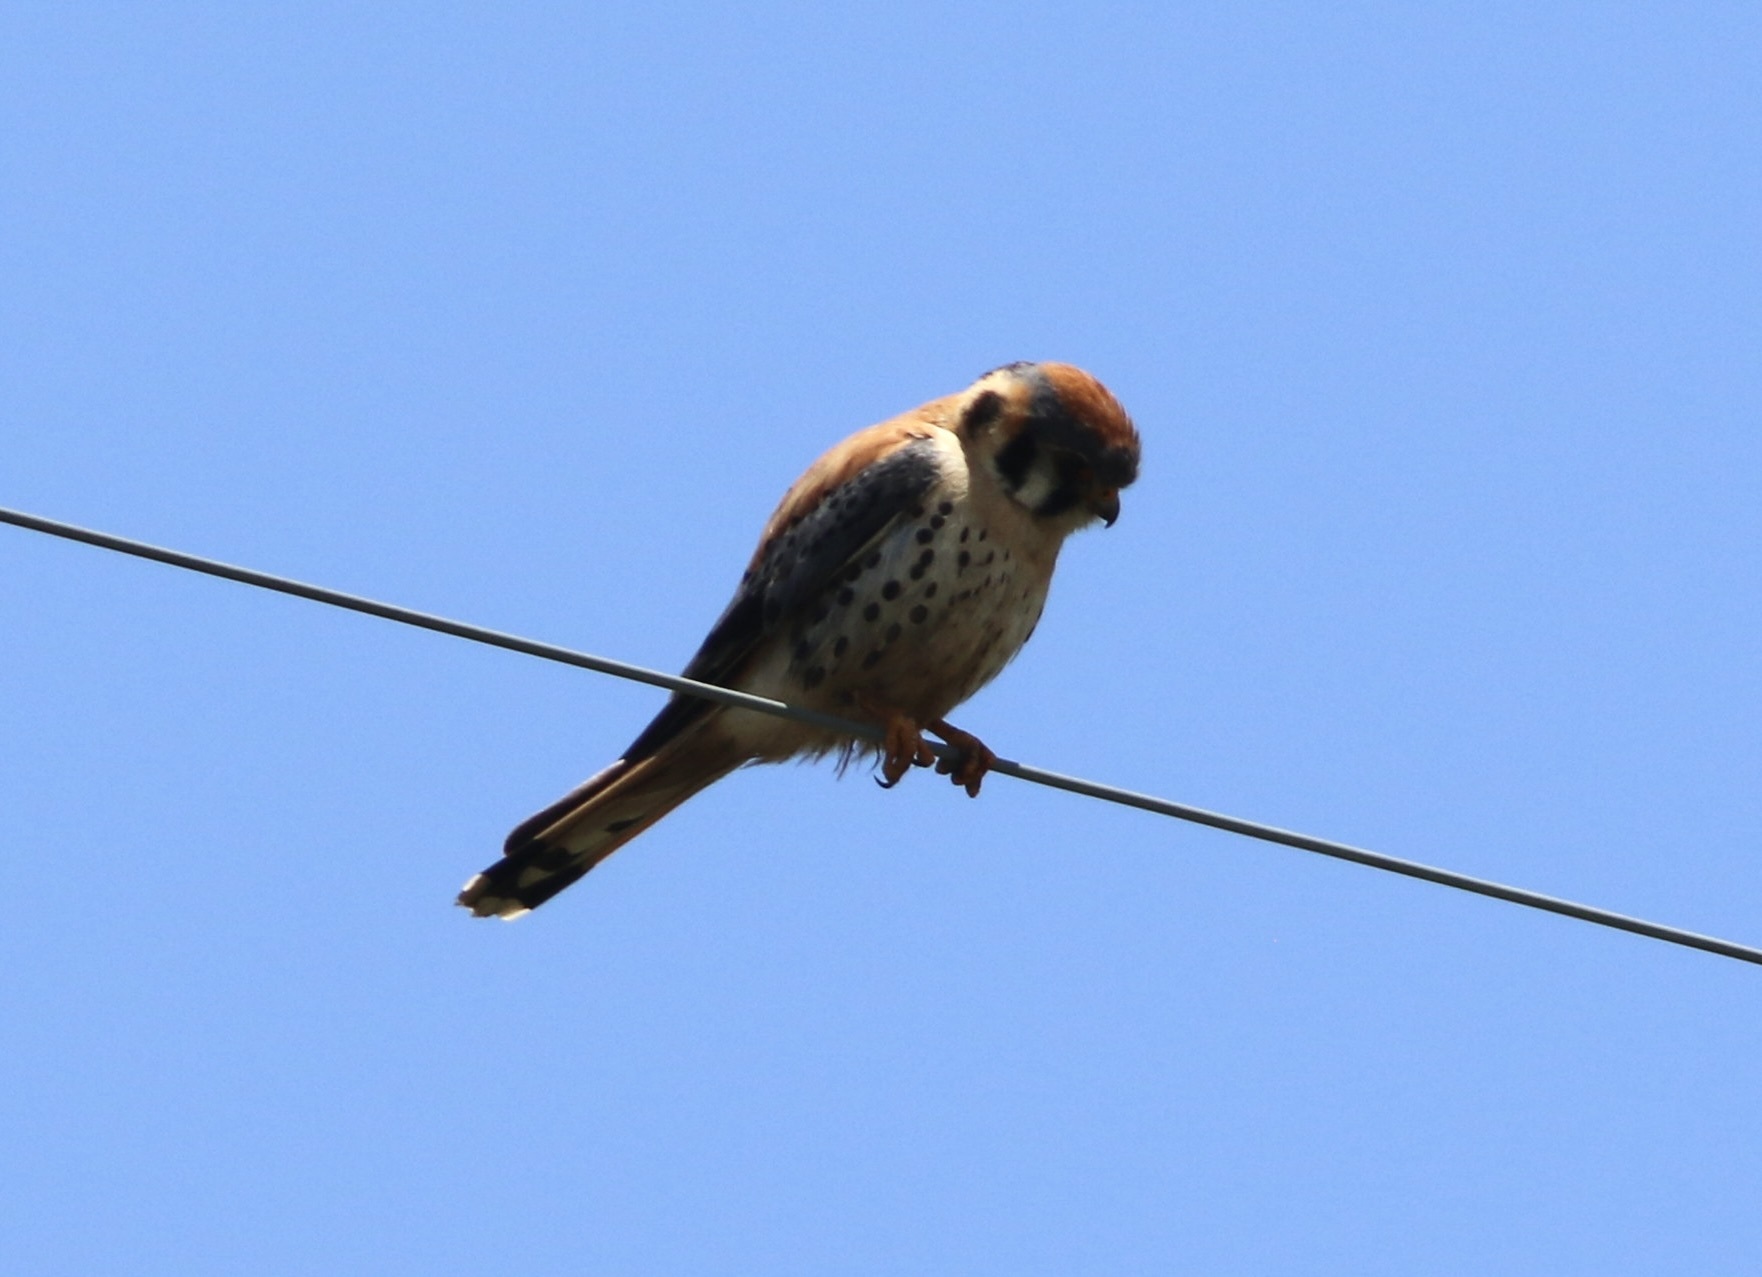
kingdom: Animalia
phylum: Chordata
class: Aves
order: Falconiformes
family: Falconidae
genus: Falco
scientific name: Falco sparverius
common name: American kestrel
